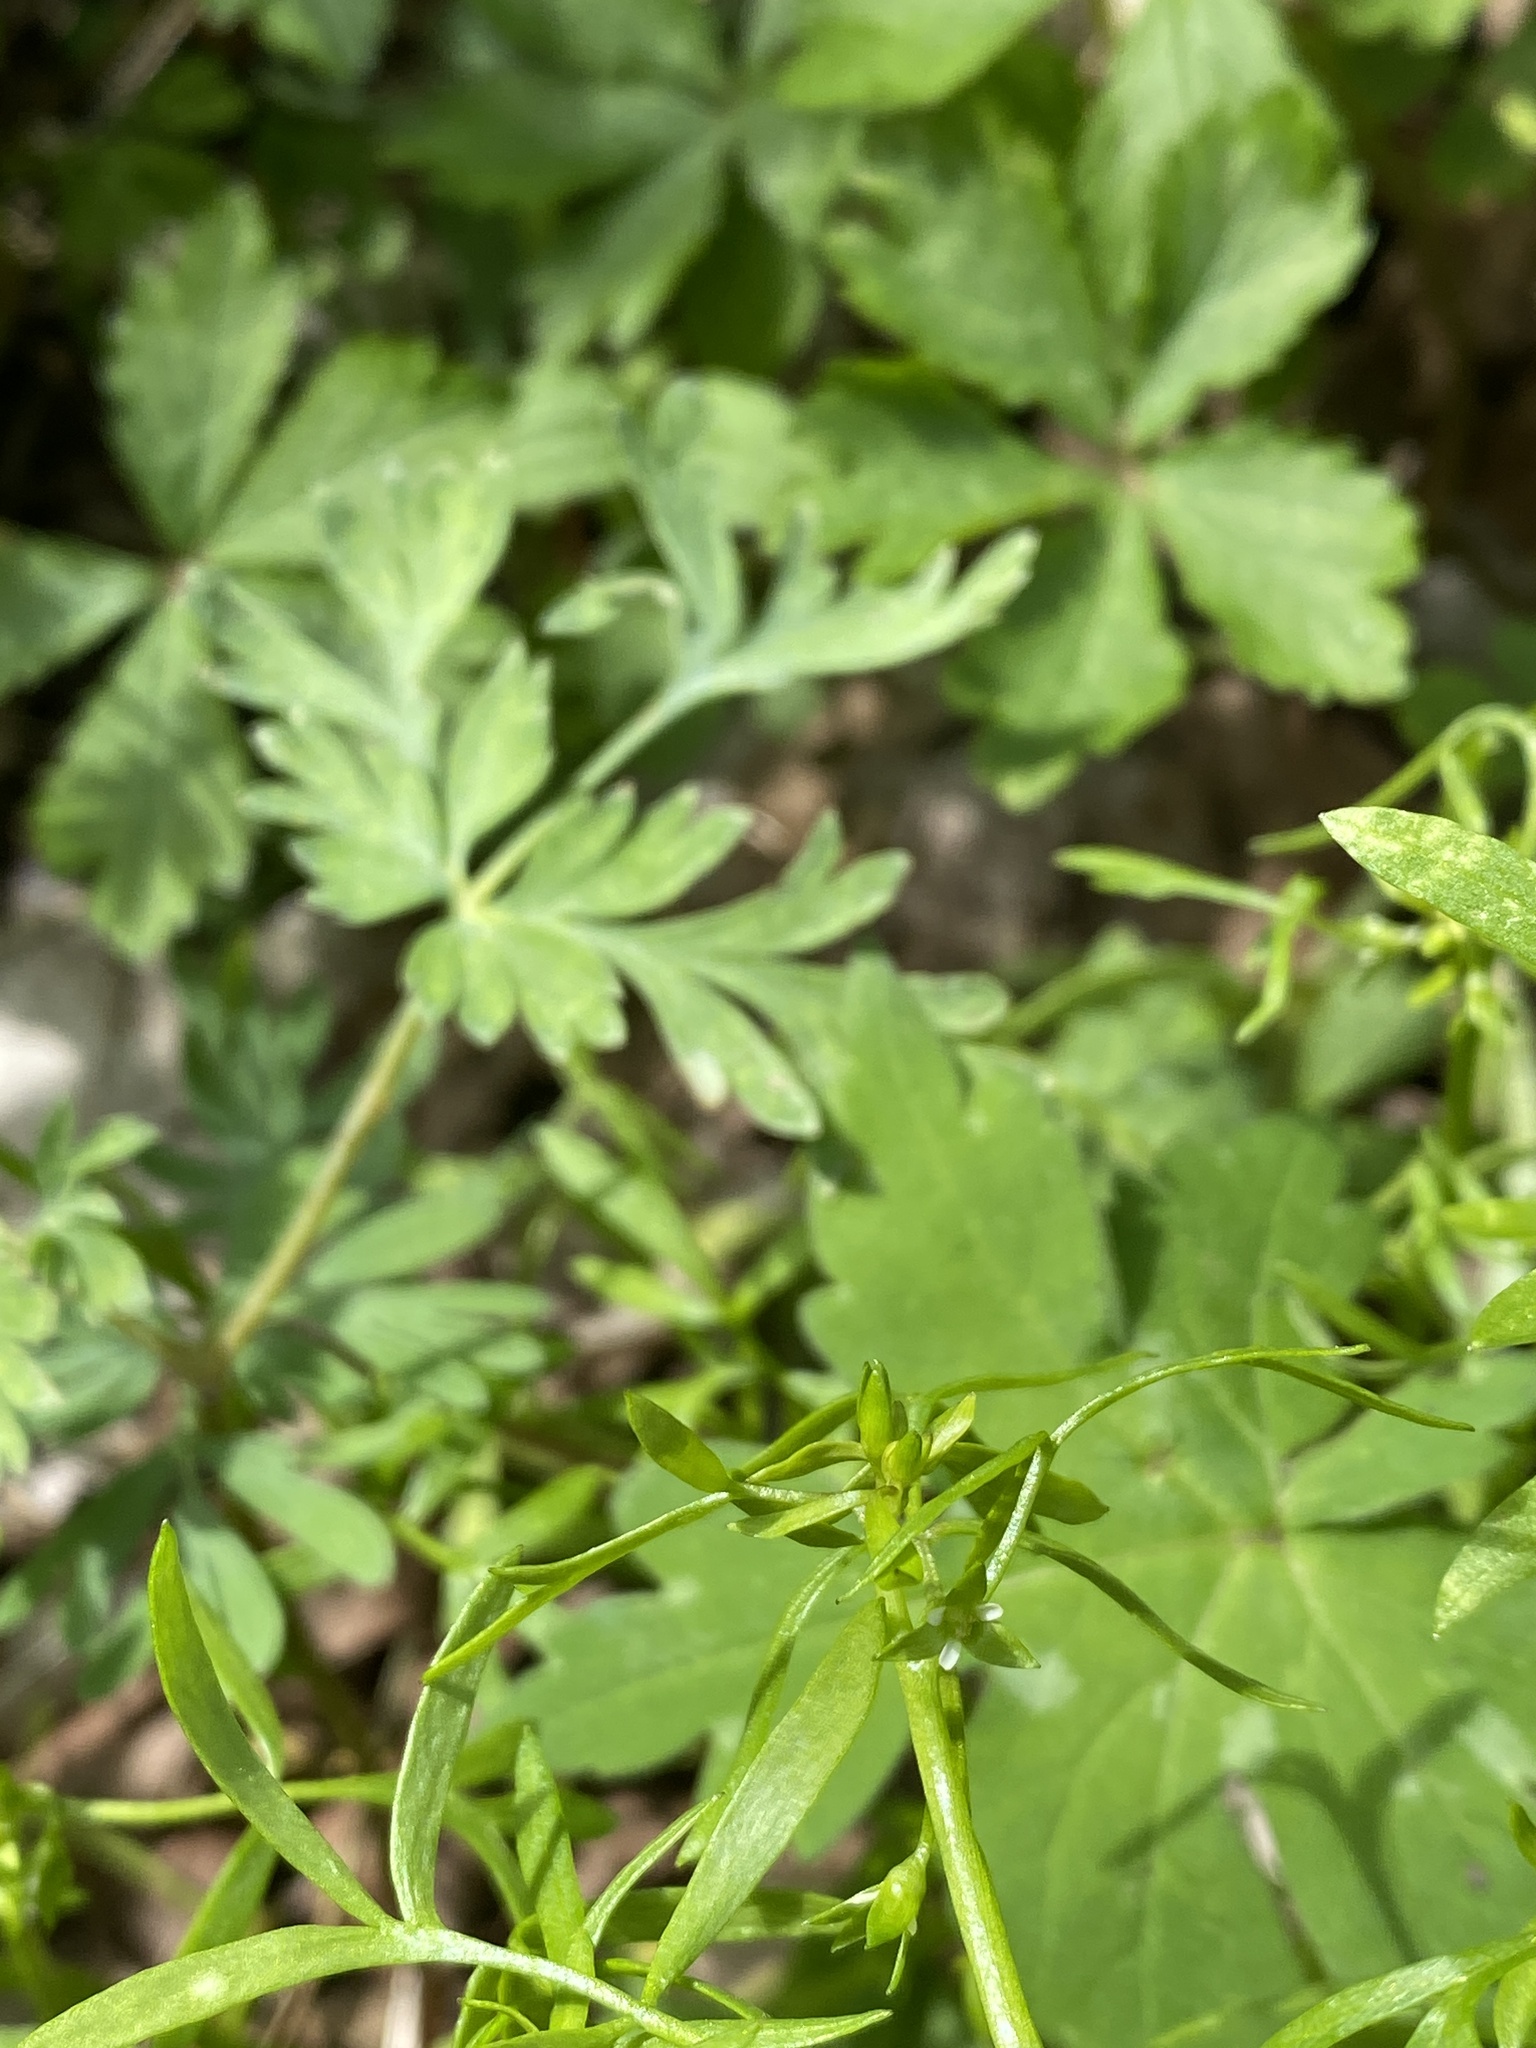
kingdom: Plantae
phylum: Tracheophyta
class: Magnoliopsida
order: Brassicales
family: Limnanthaceae
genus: Floerkea
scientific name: Floerkea proserpinacoides
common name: False mermaid
